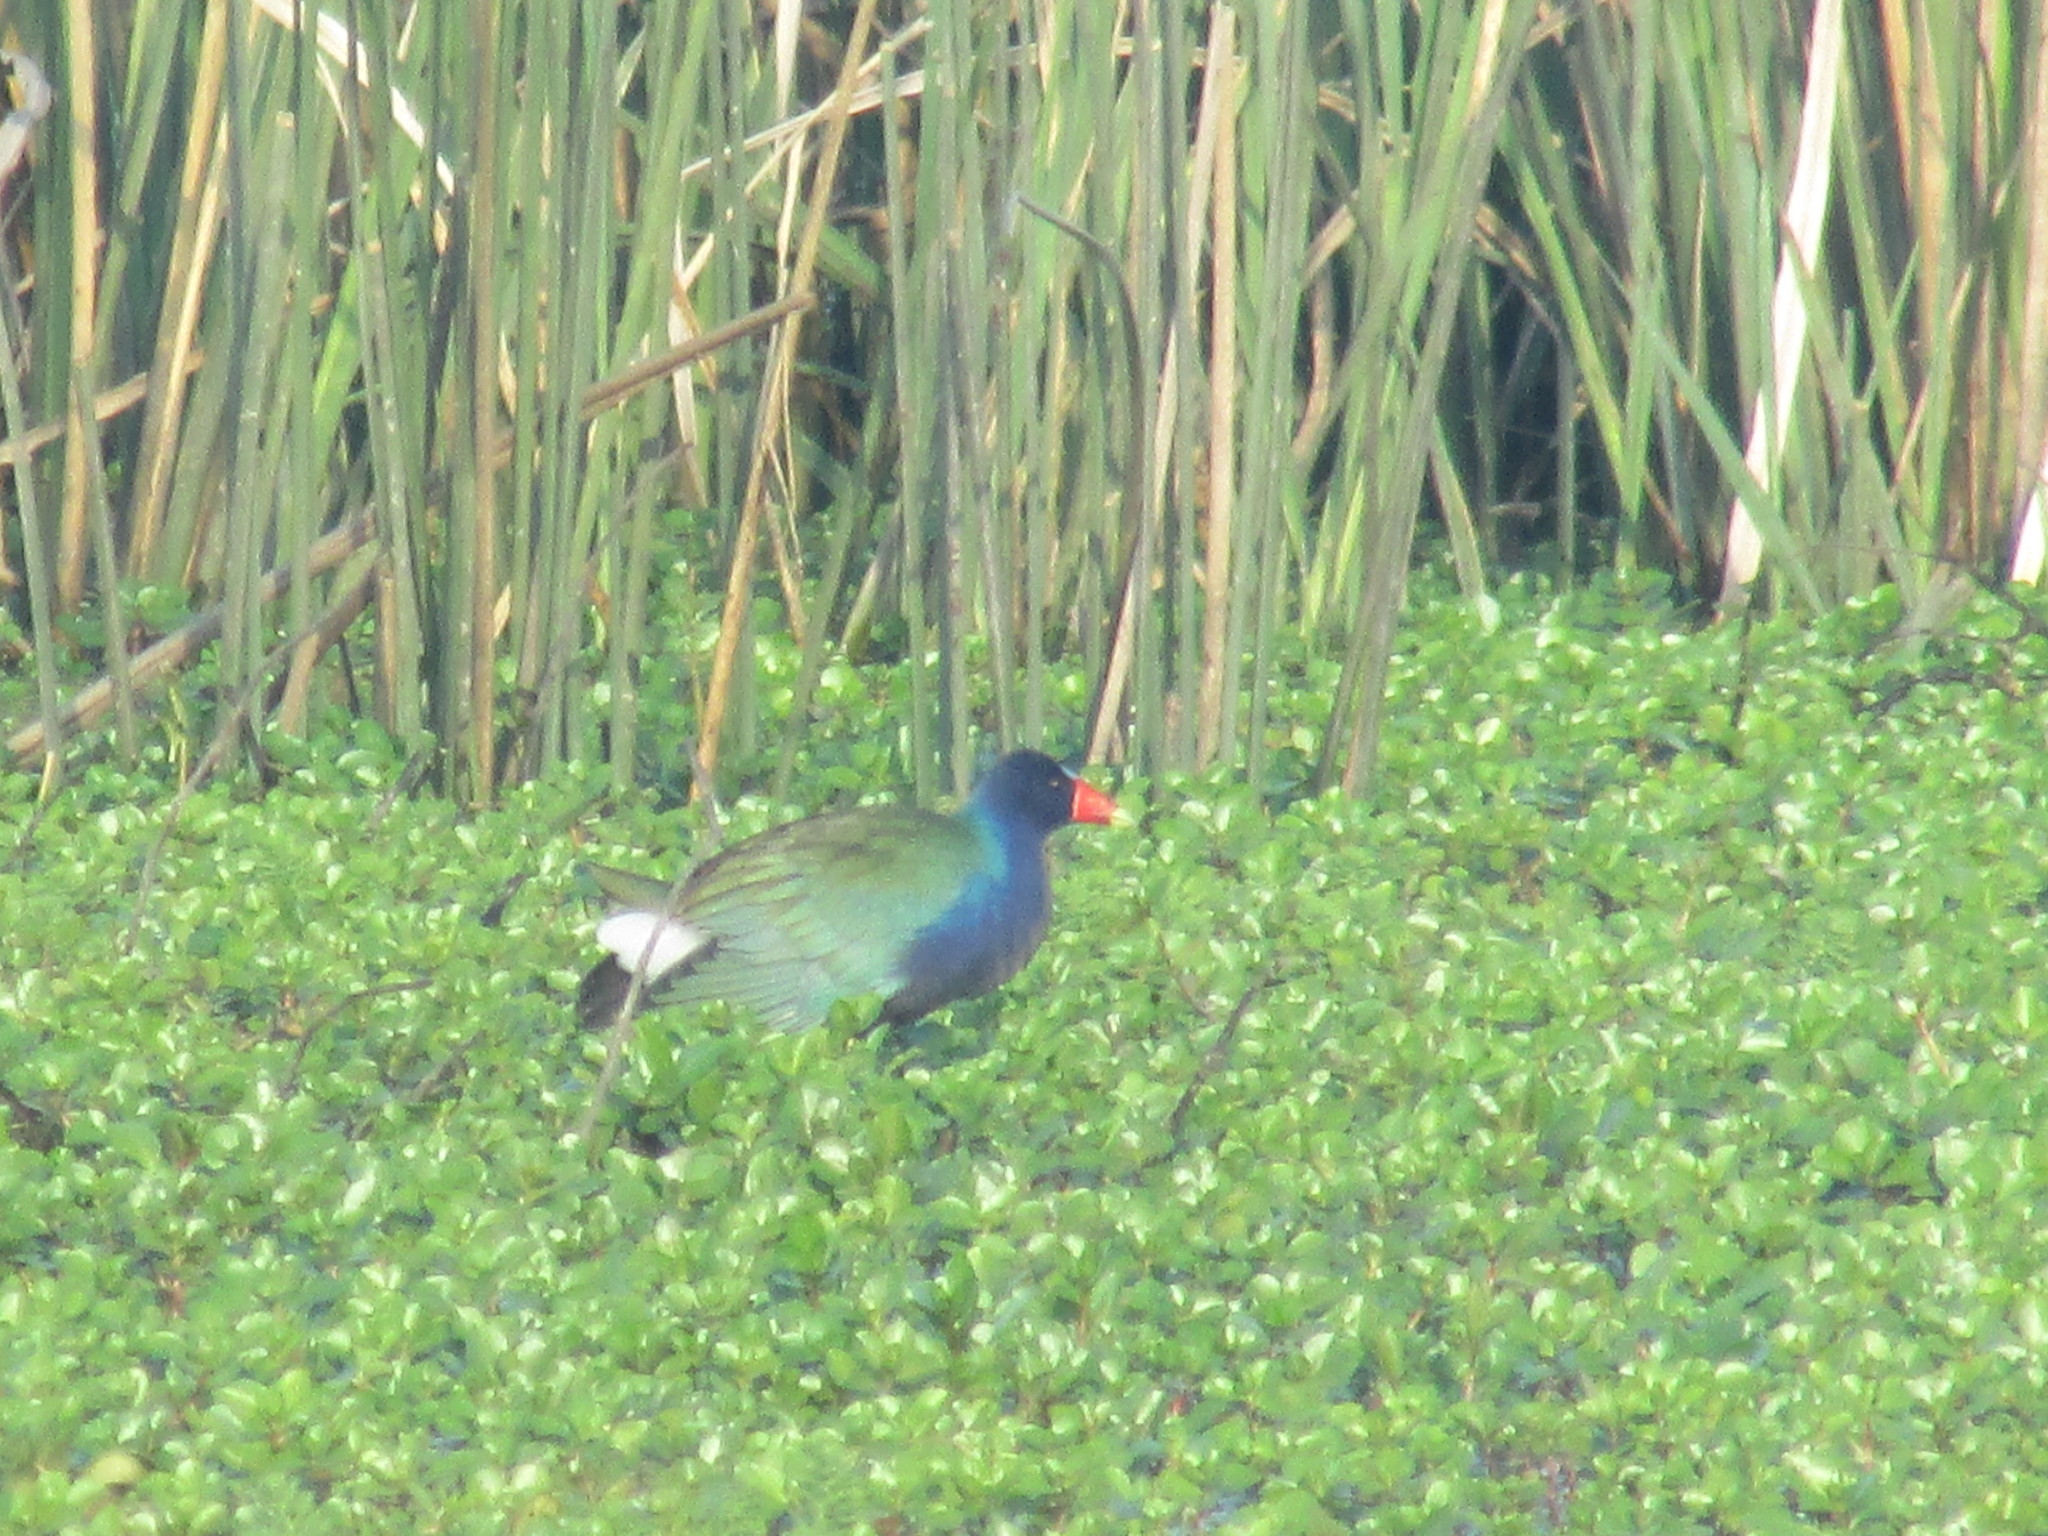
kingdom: Animalia
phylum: Chordata
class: Aves
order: Gruiformes
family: Rallidae
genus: Porphyrio
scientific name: Porphyrio martinica
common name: Purple gallinule
